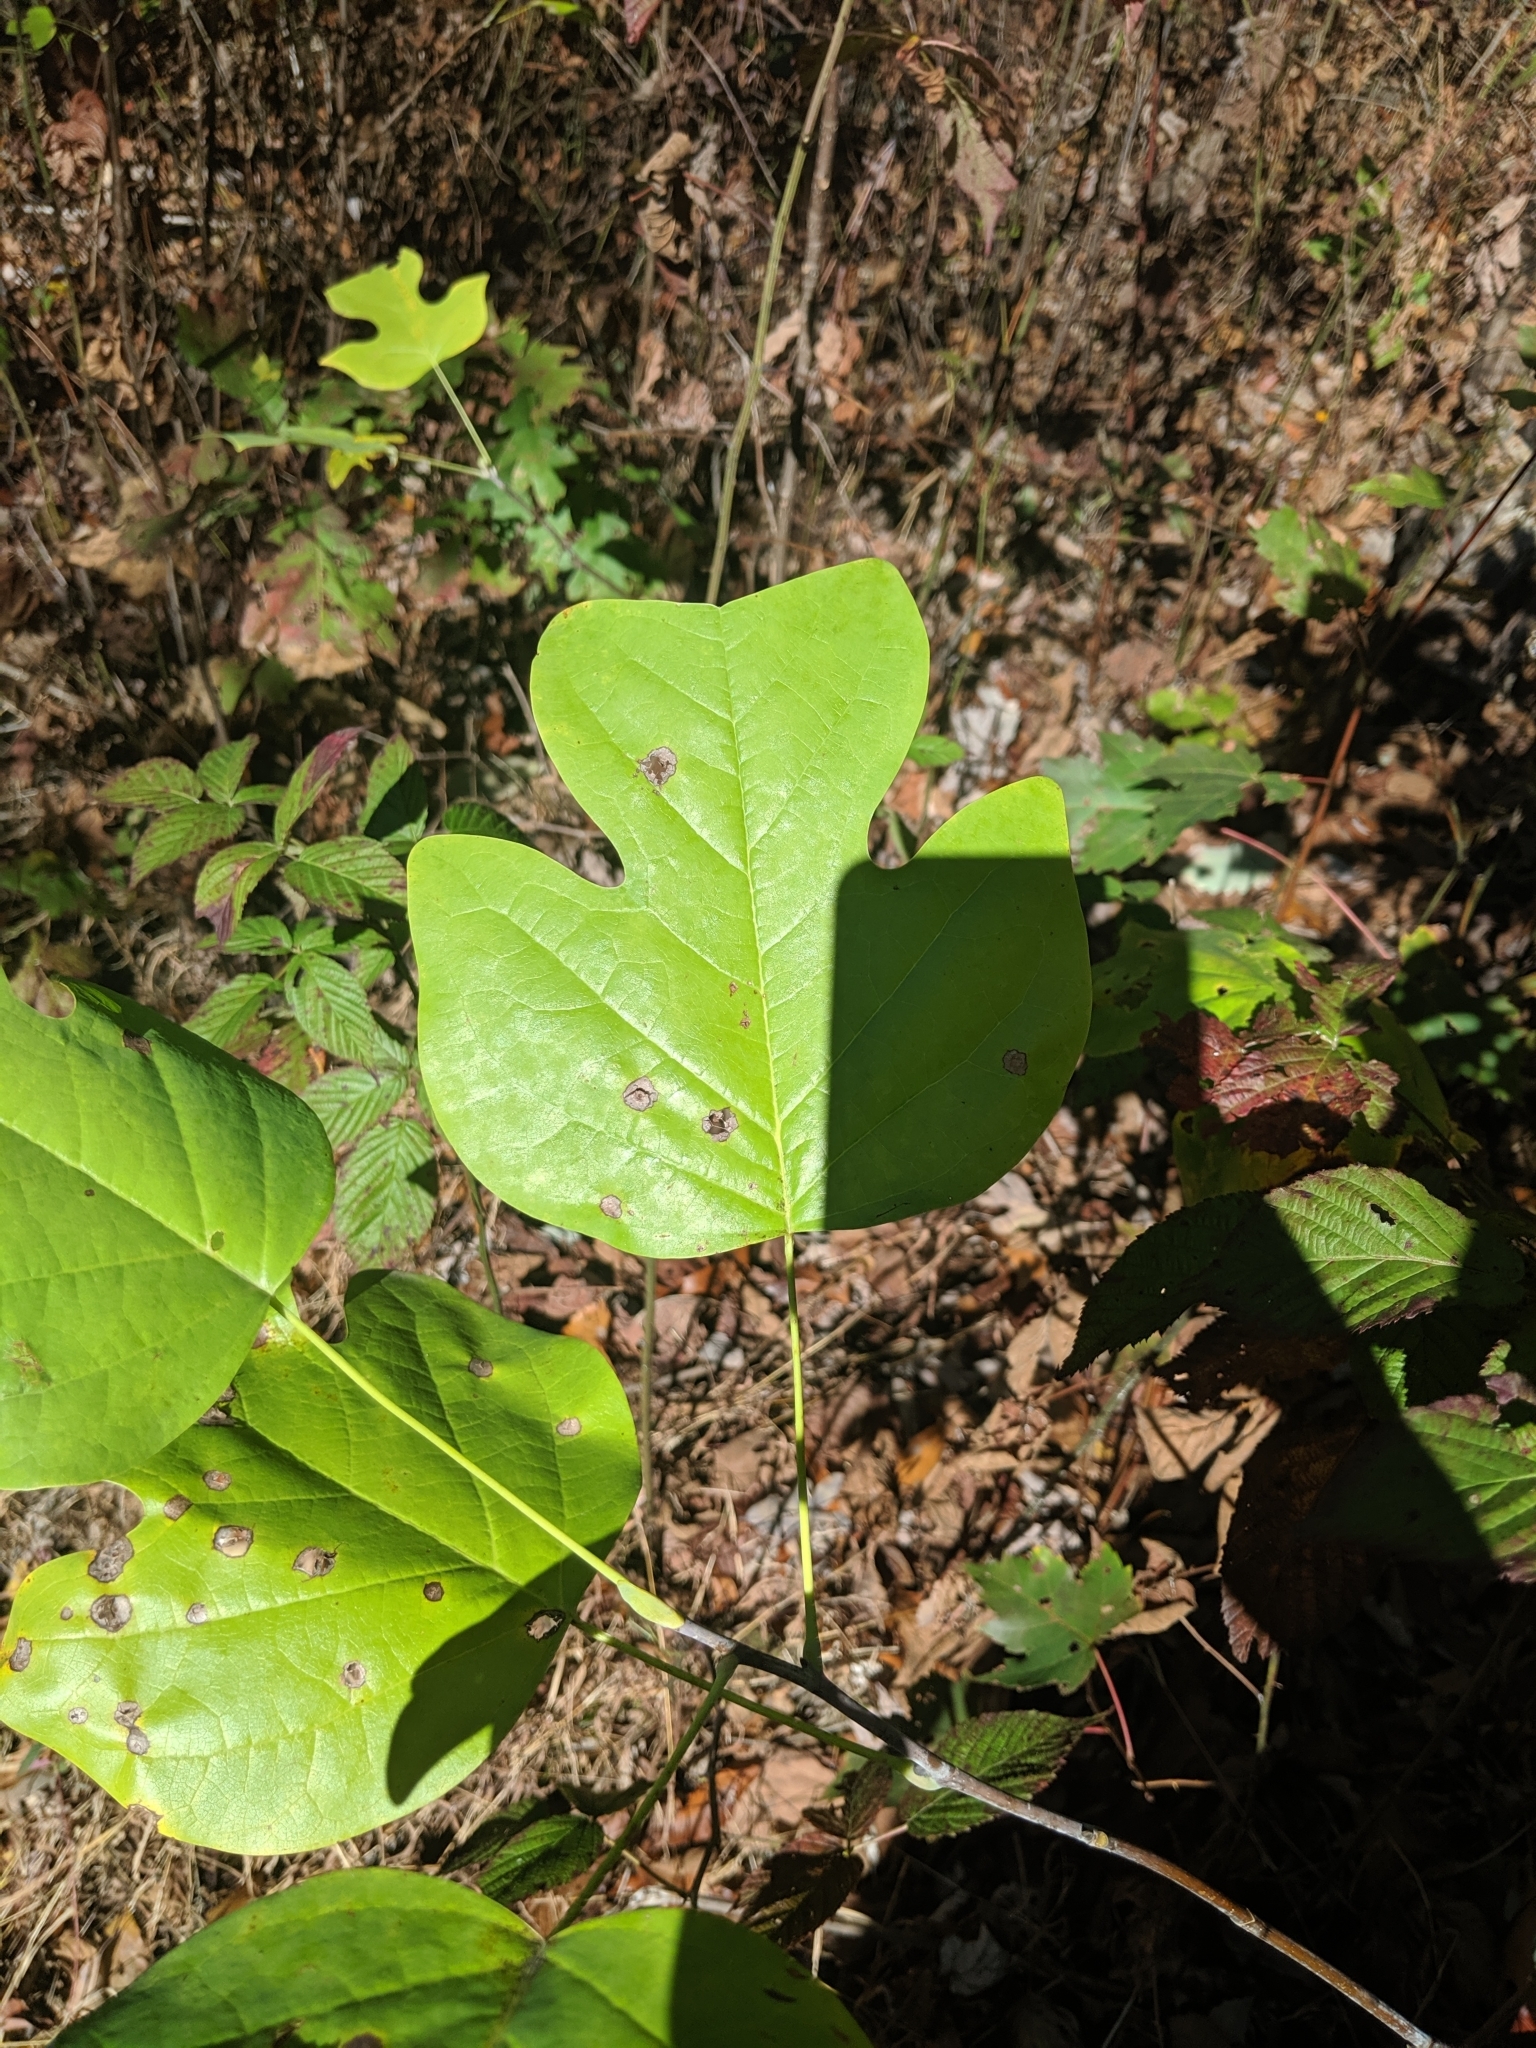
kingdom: Plantae
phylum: Tracheophyta
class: Magnoliopsida
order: Magnoliales
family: Magnoliaceae
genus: Liriodendron
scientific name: Liriodendron tulipifera
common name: Tulip tree
